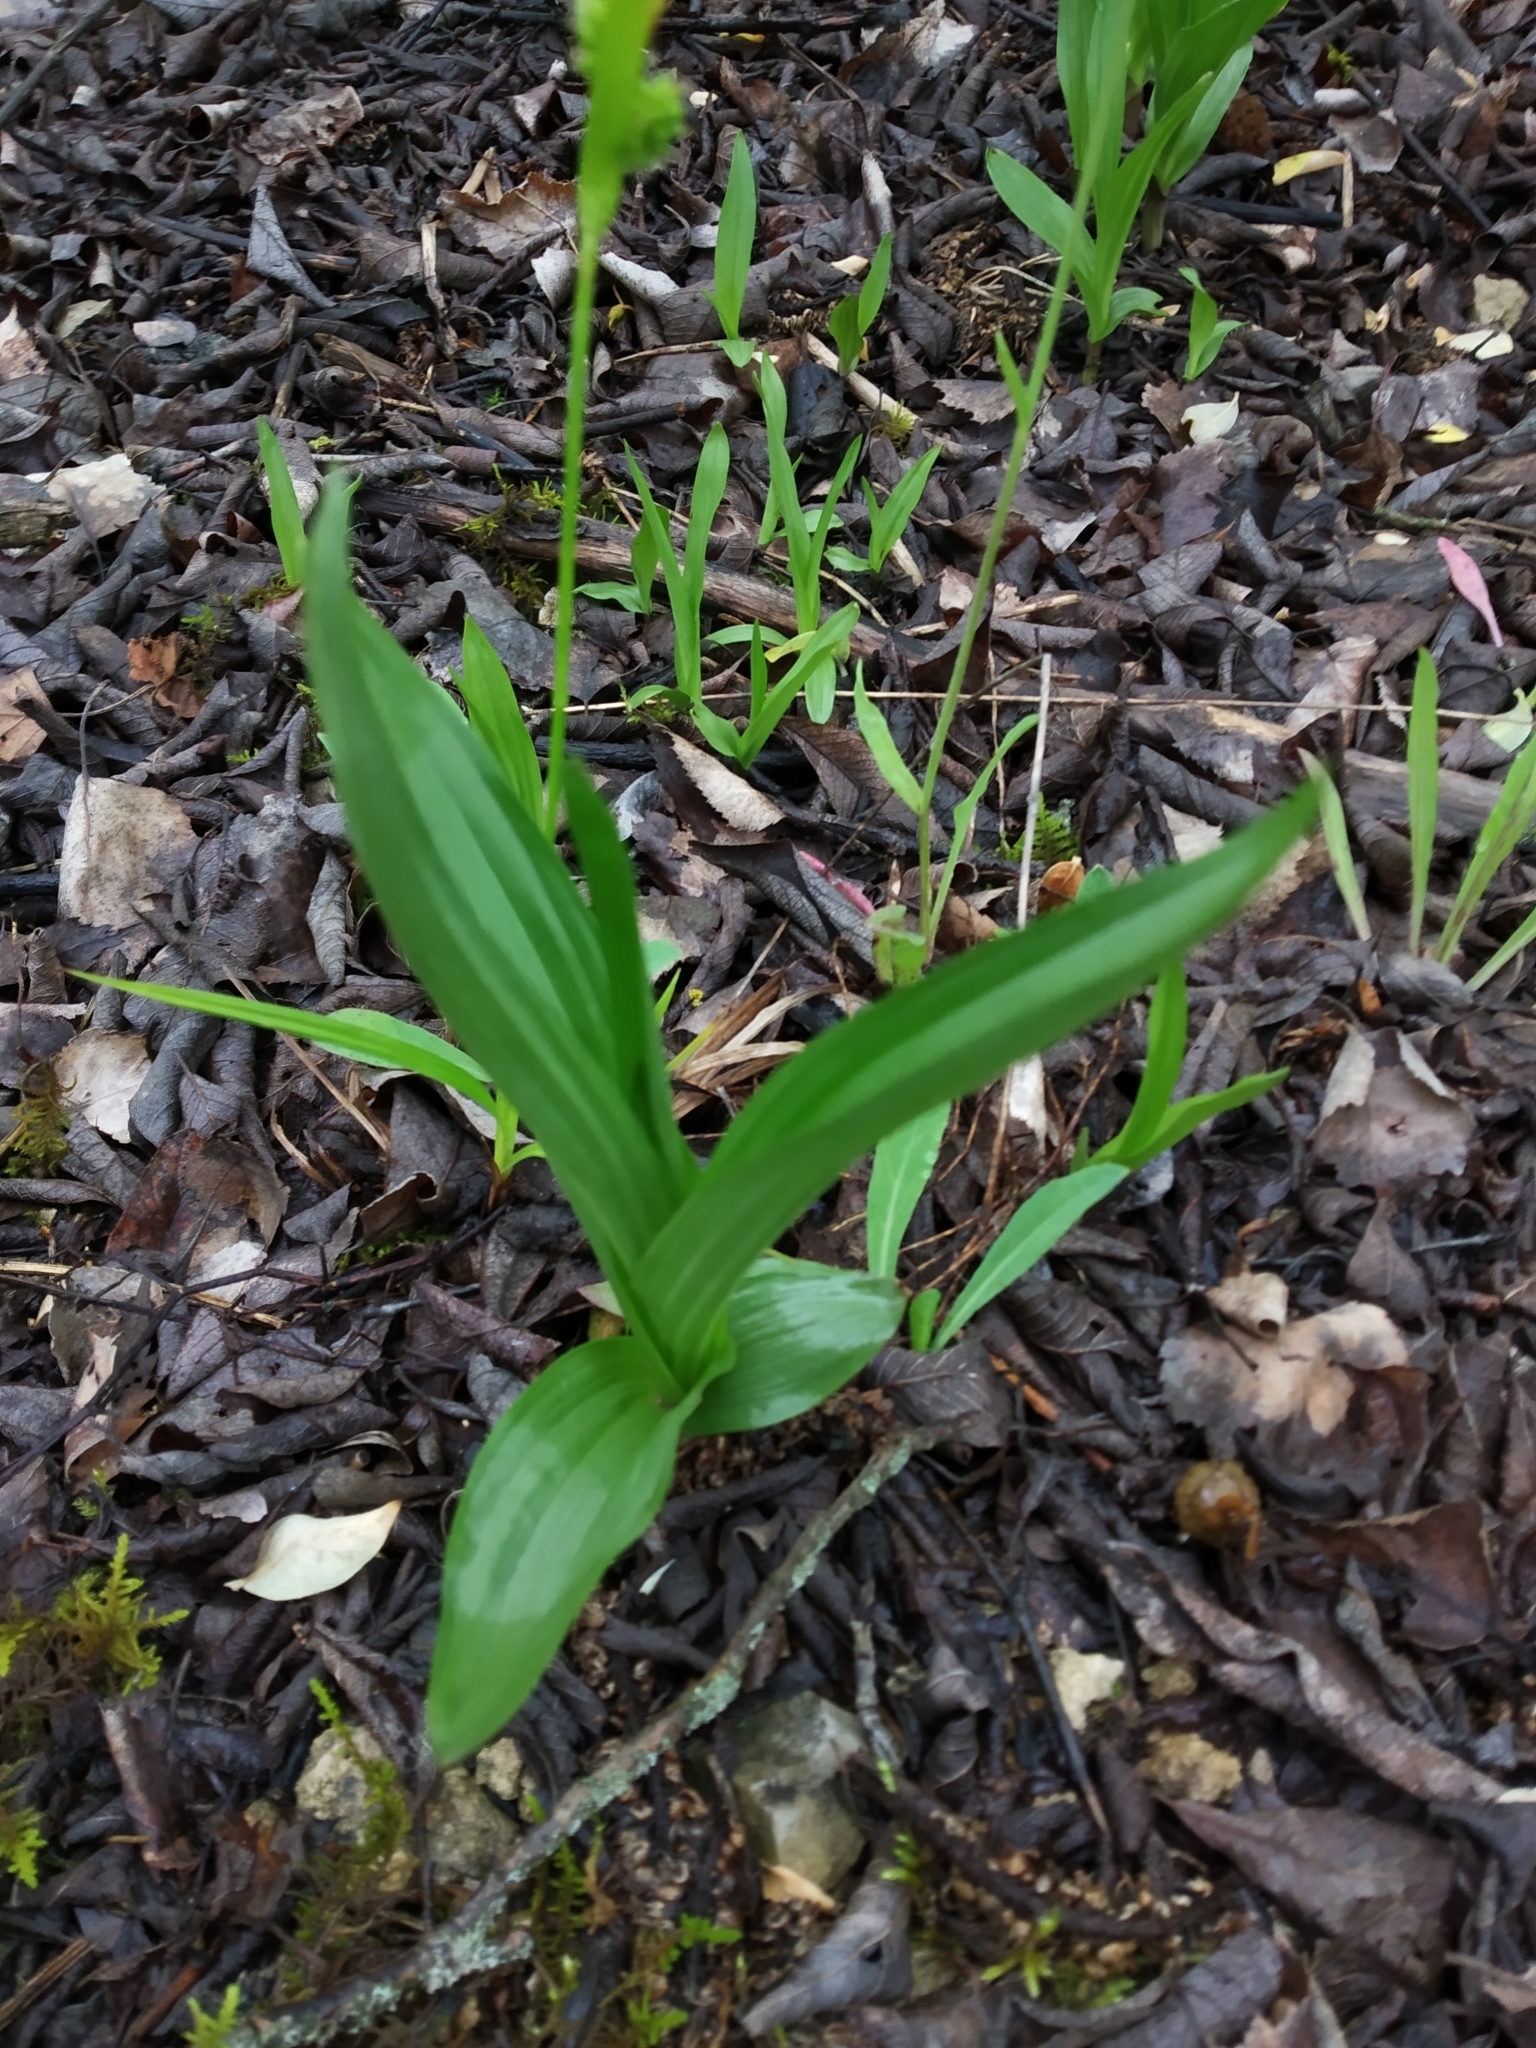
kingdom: Plantae
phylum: Tracheophyta
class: Liliopsida
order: Asparagales
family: Orchidaceae
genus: Epipactis
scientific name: Epipactis palustris
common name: Marsh helleborine
